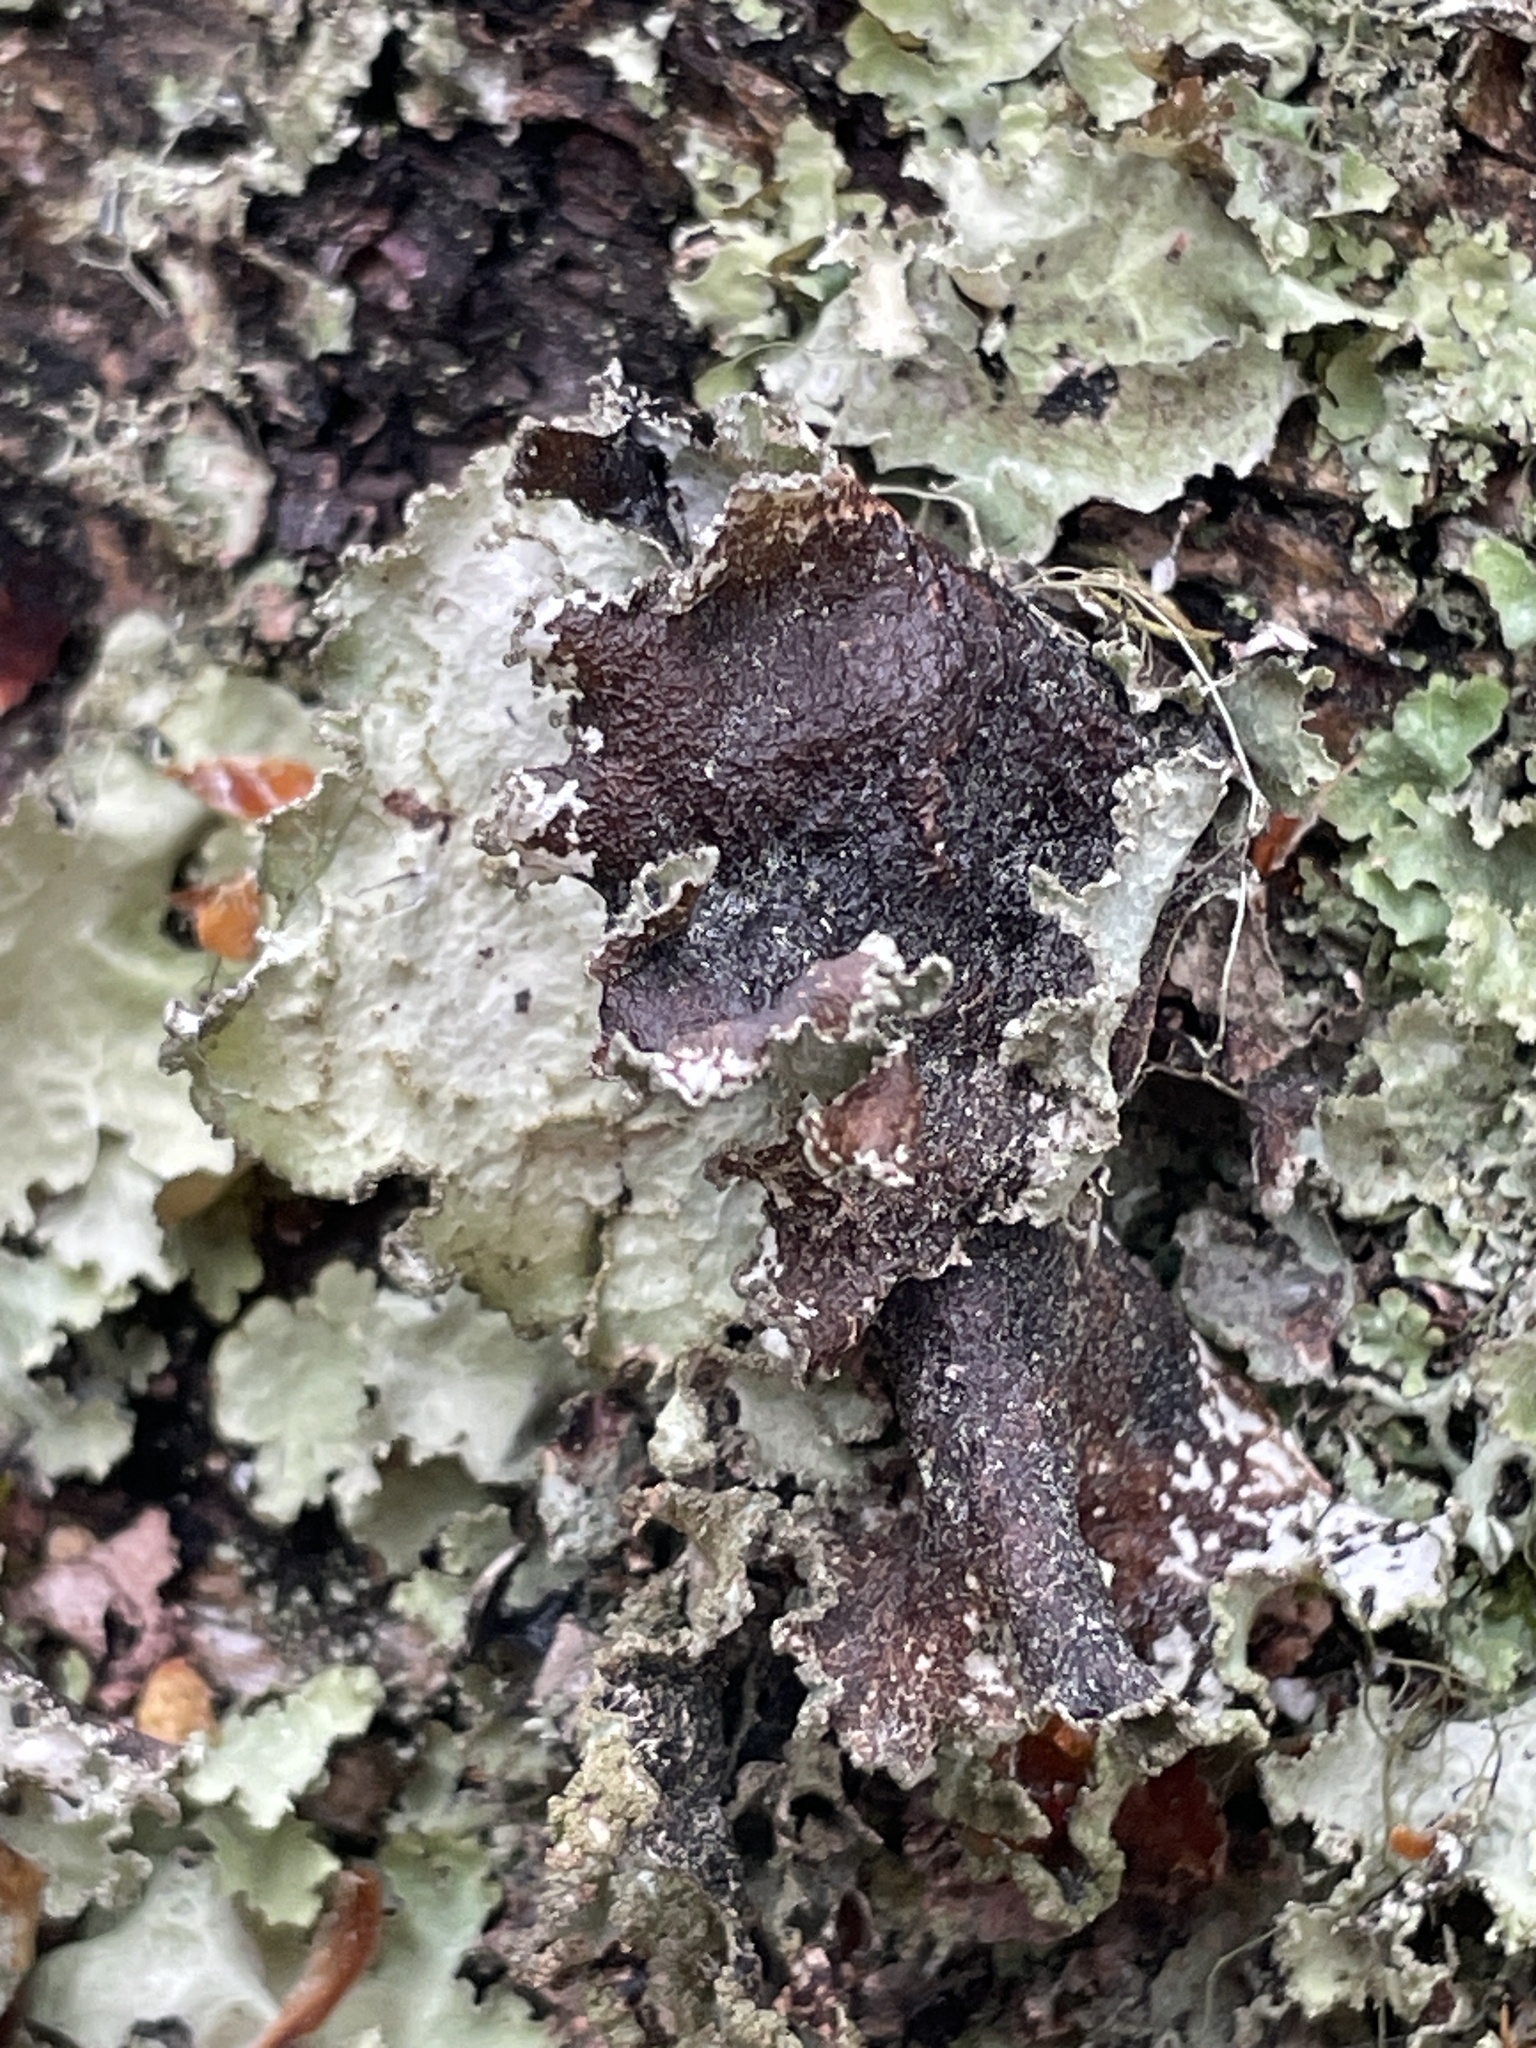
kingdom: Fungi
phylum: Ascomycota
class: Lecanoromycetes
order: Lecanorales
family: Parmeliaceae
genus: Platismatia
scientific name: Platismatia glauca
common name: Varied rag lichen
